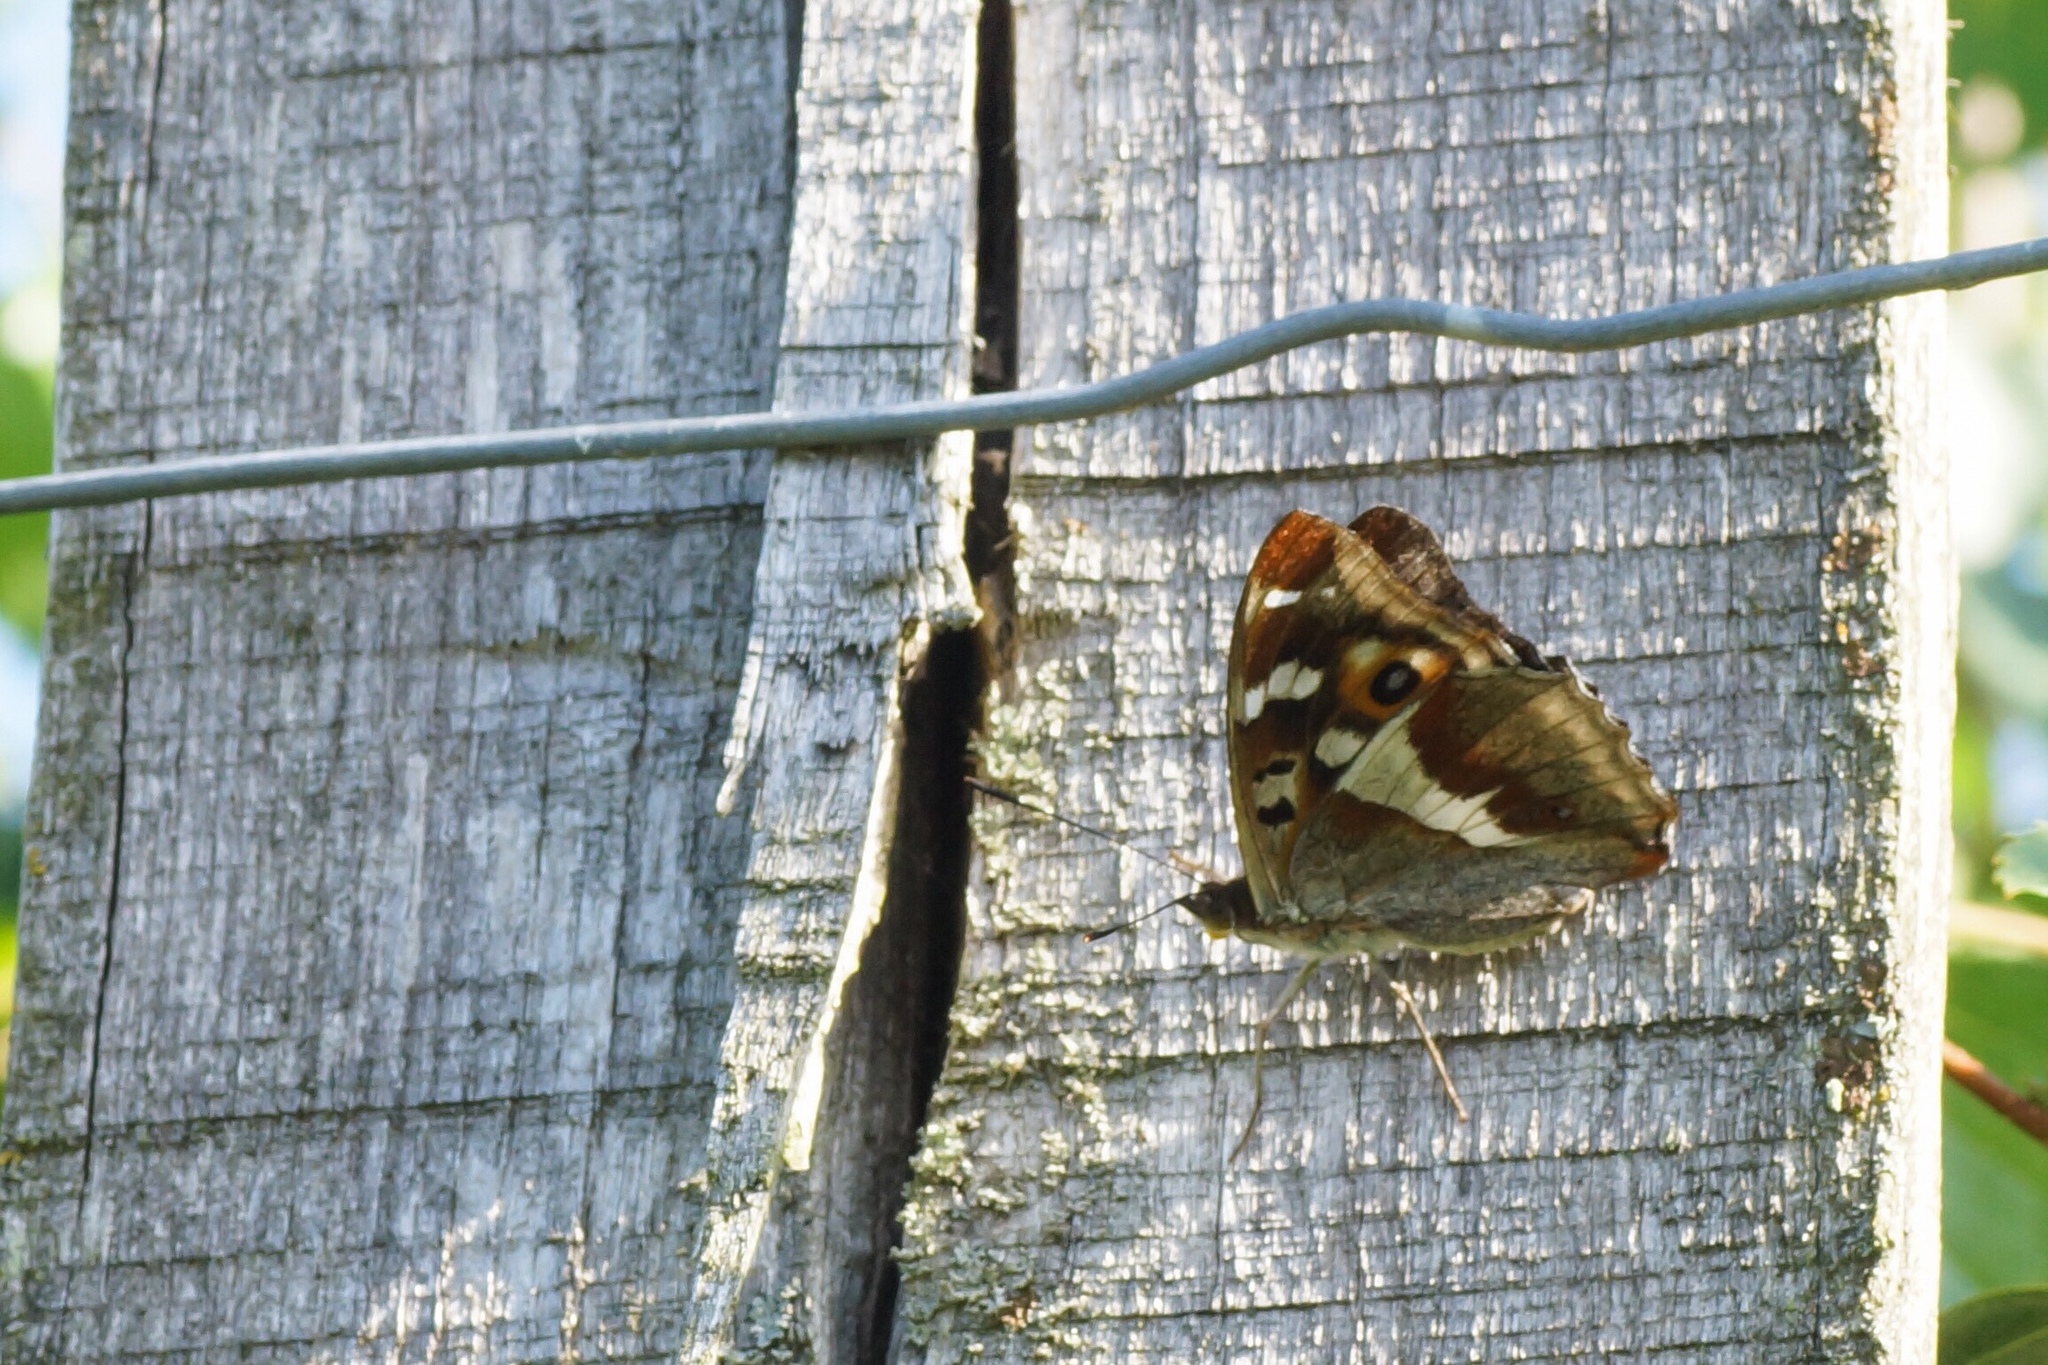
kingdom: Animalia
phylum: Arthropoda
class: Insecta
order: Lepidoptera
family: Nymphalidae
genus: Apatura
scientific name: Apatura iris
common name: Purple emperor
